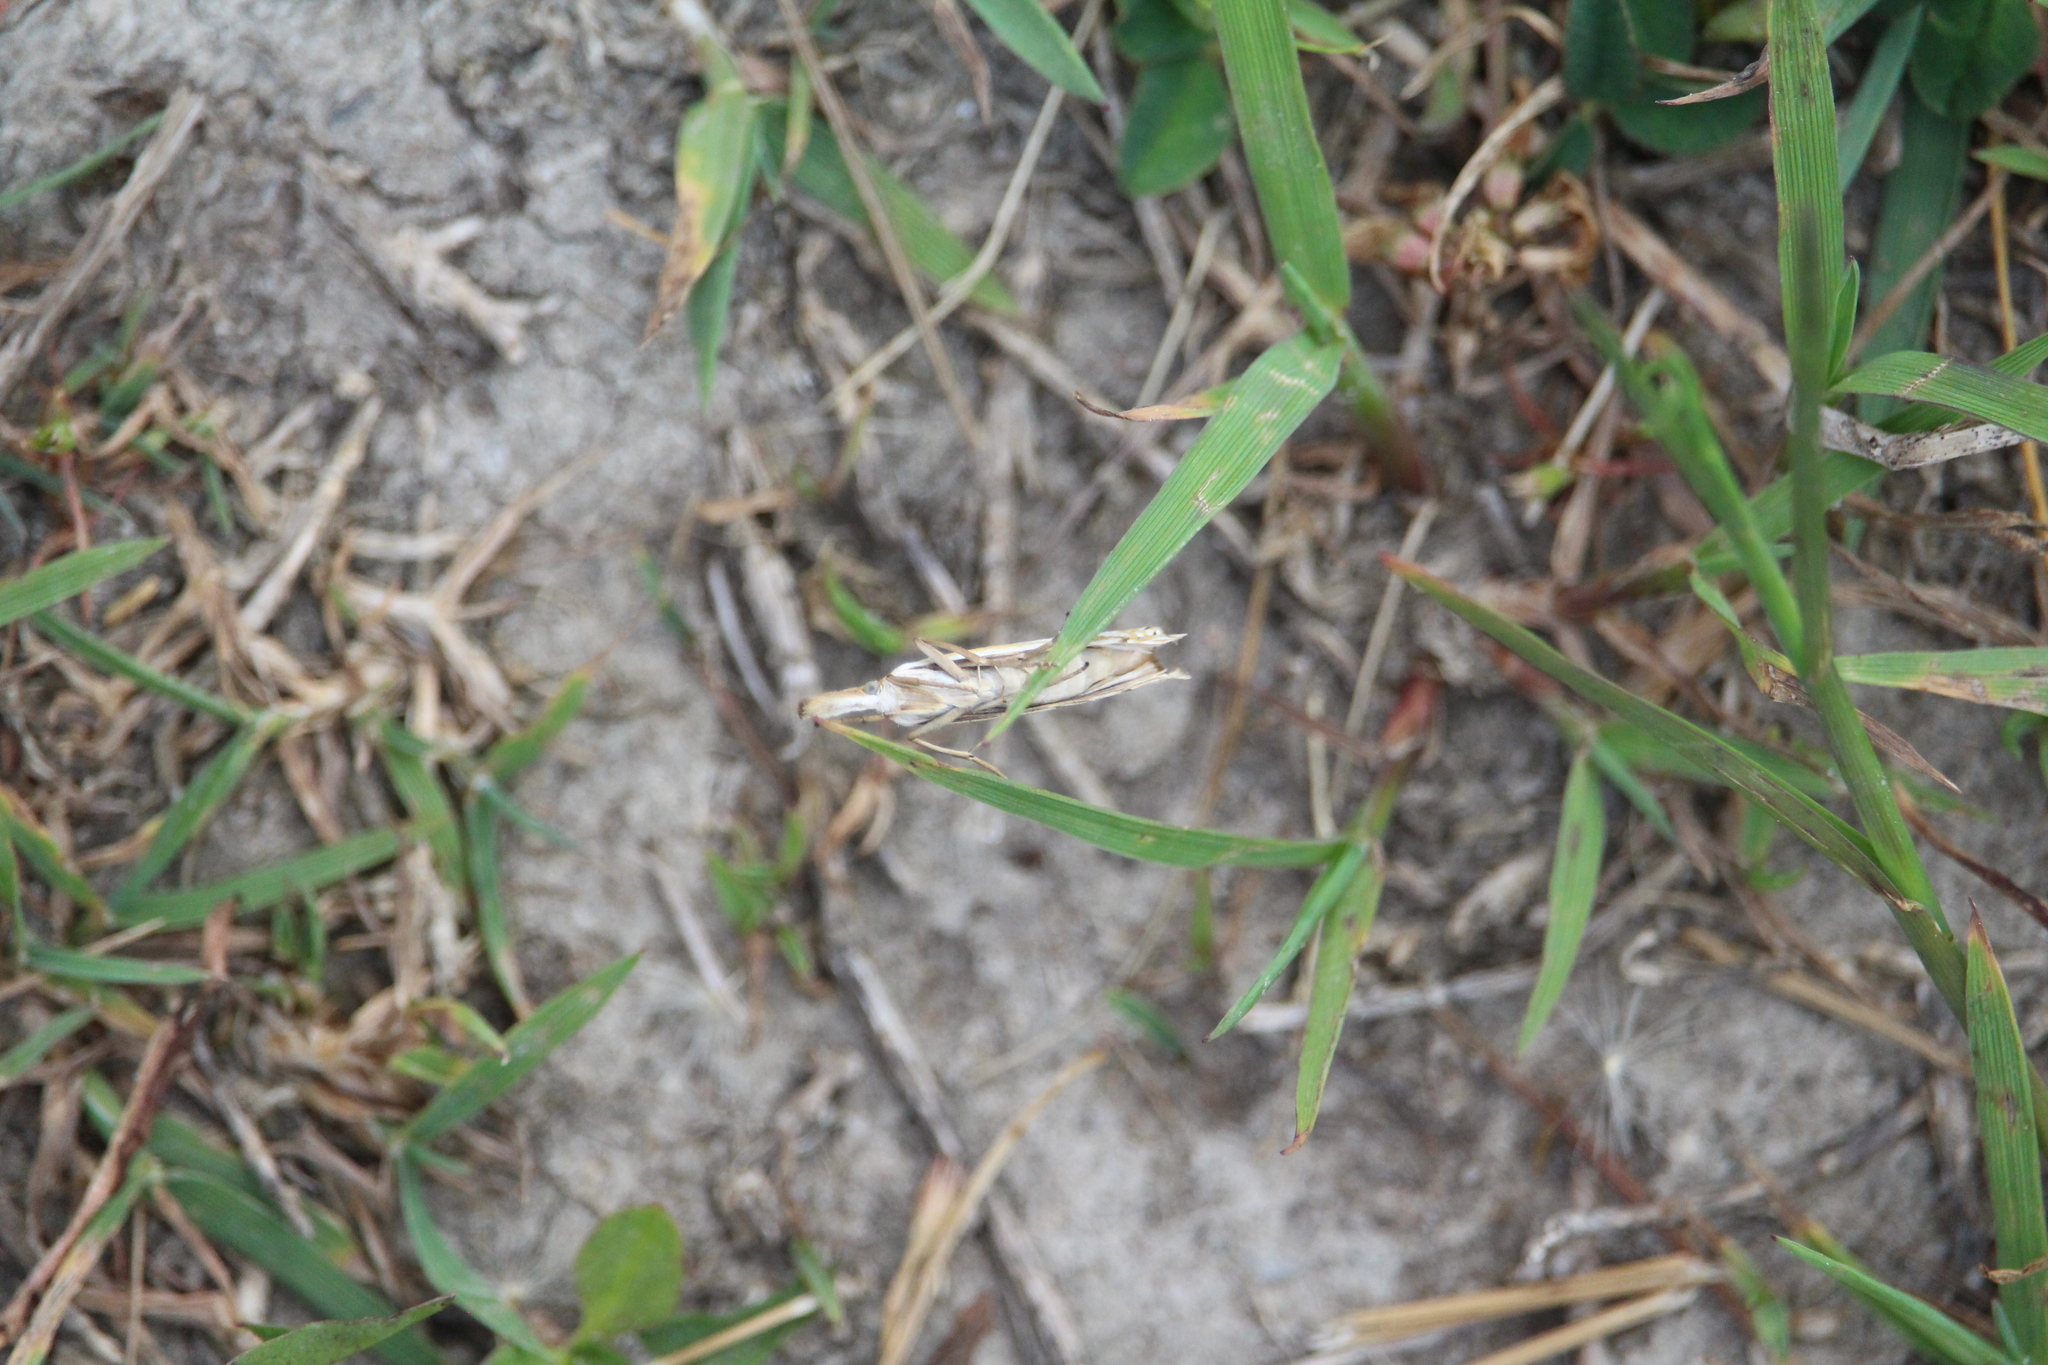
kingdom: Animalia
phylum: Arthropoda
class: Insecta
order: Lepidoptera
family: Crambidae
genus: Agriphila
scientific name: Agriphila vulgivagellus
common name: Vagabond crambus moth
